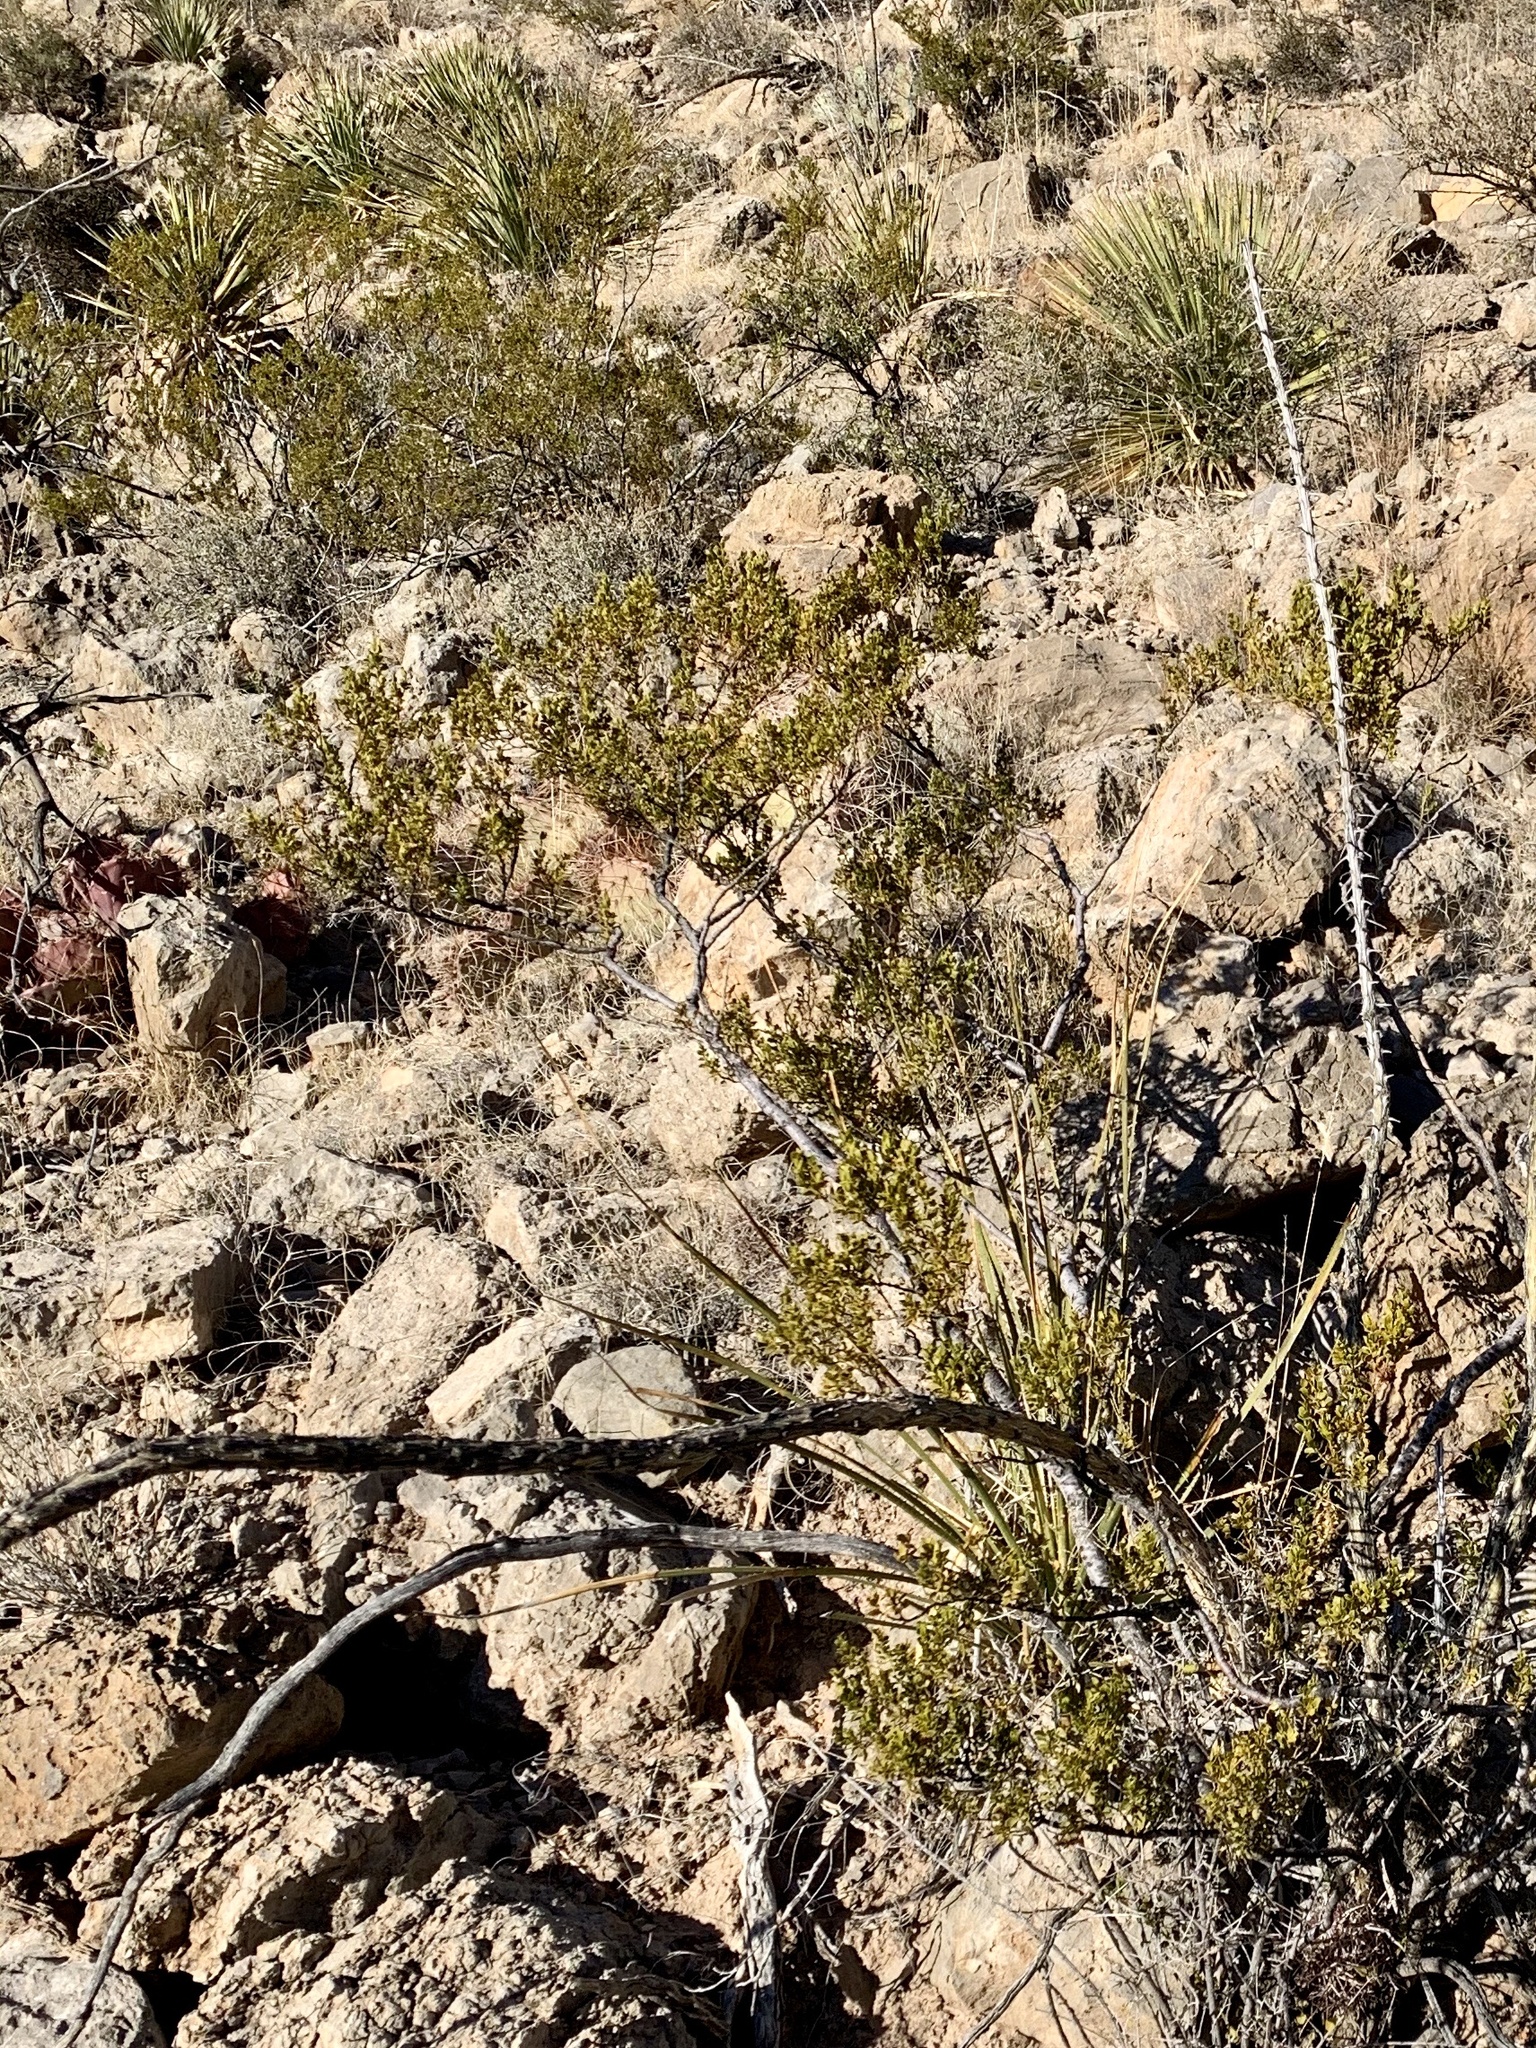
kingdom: Plantae
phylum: Tracheophyta
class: Magnoliopsida
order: Zygophyllales
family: Zygophyllaceae
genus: Larrea
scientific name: Larrea tridentata
